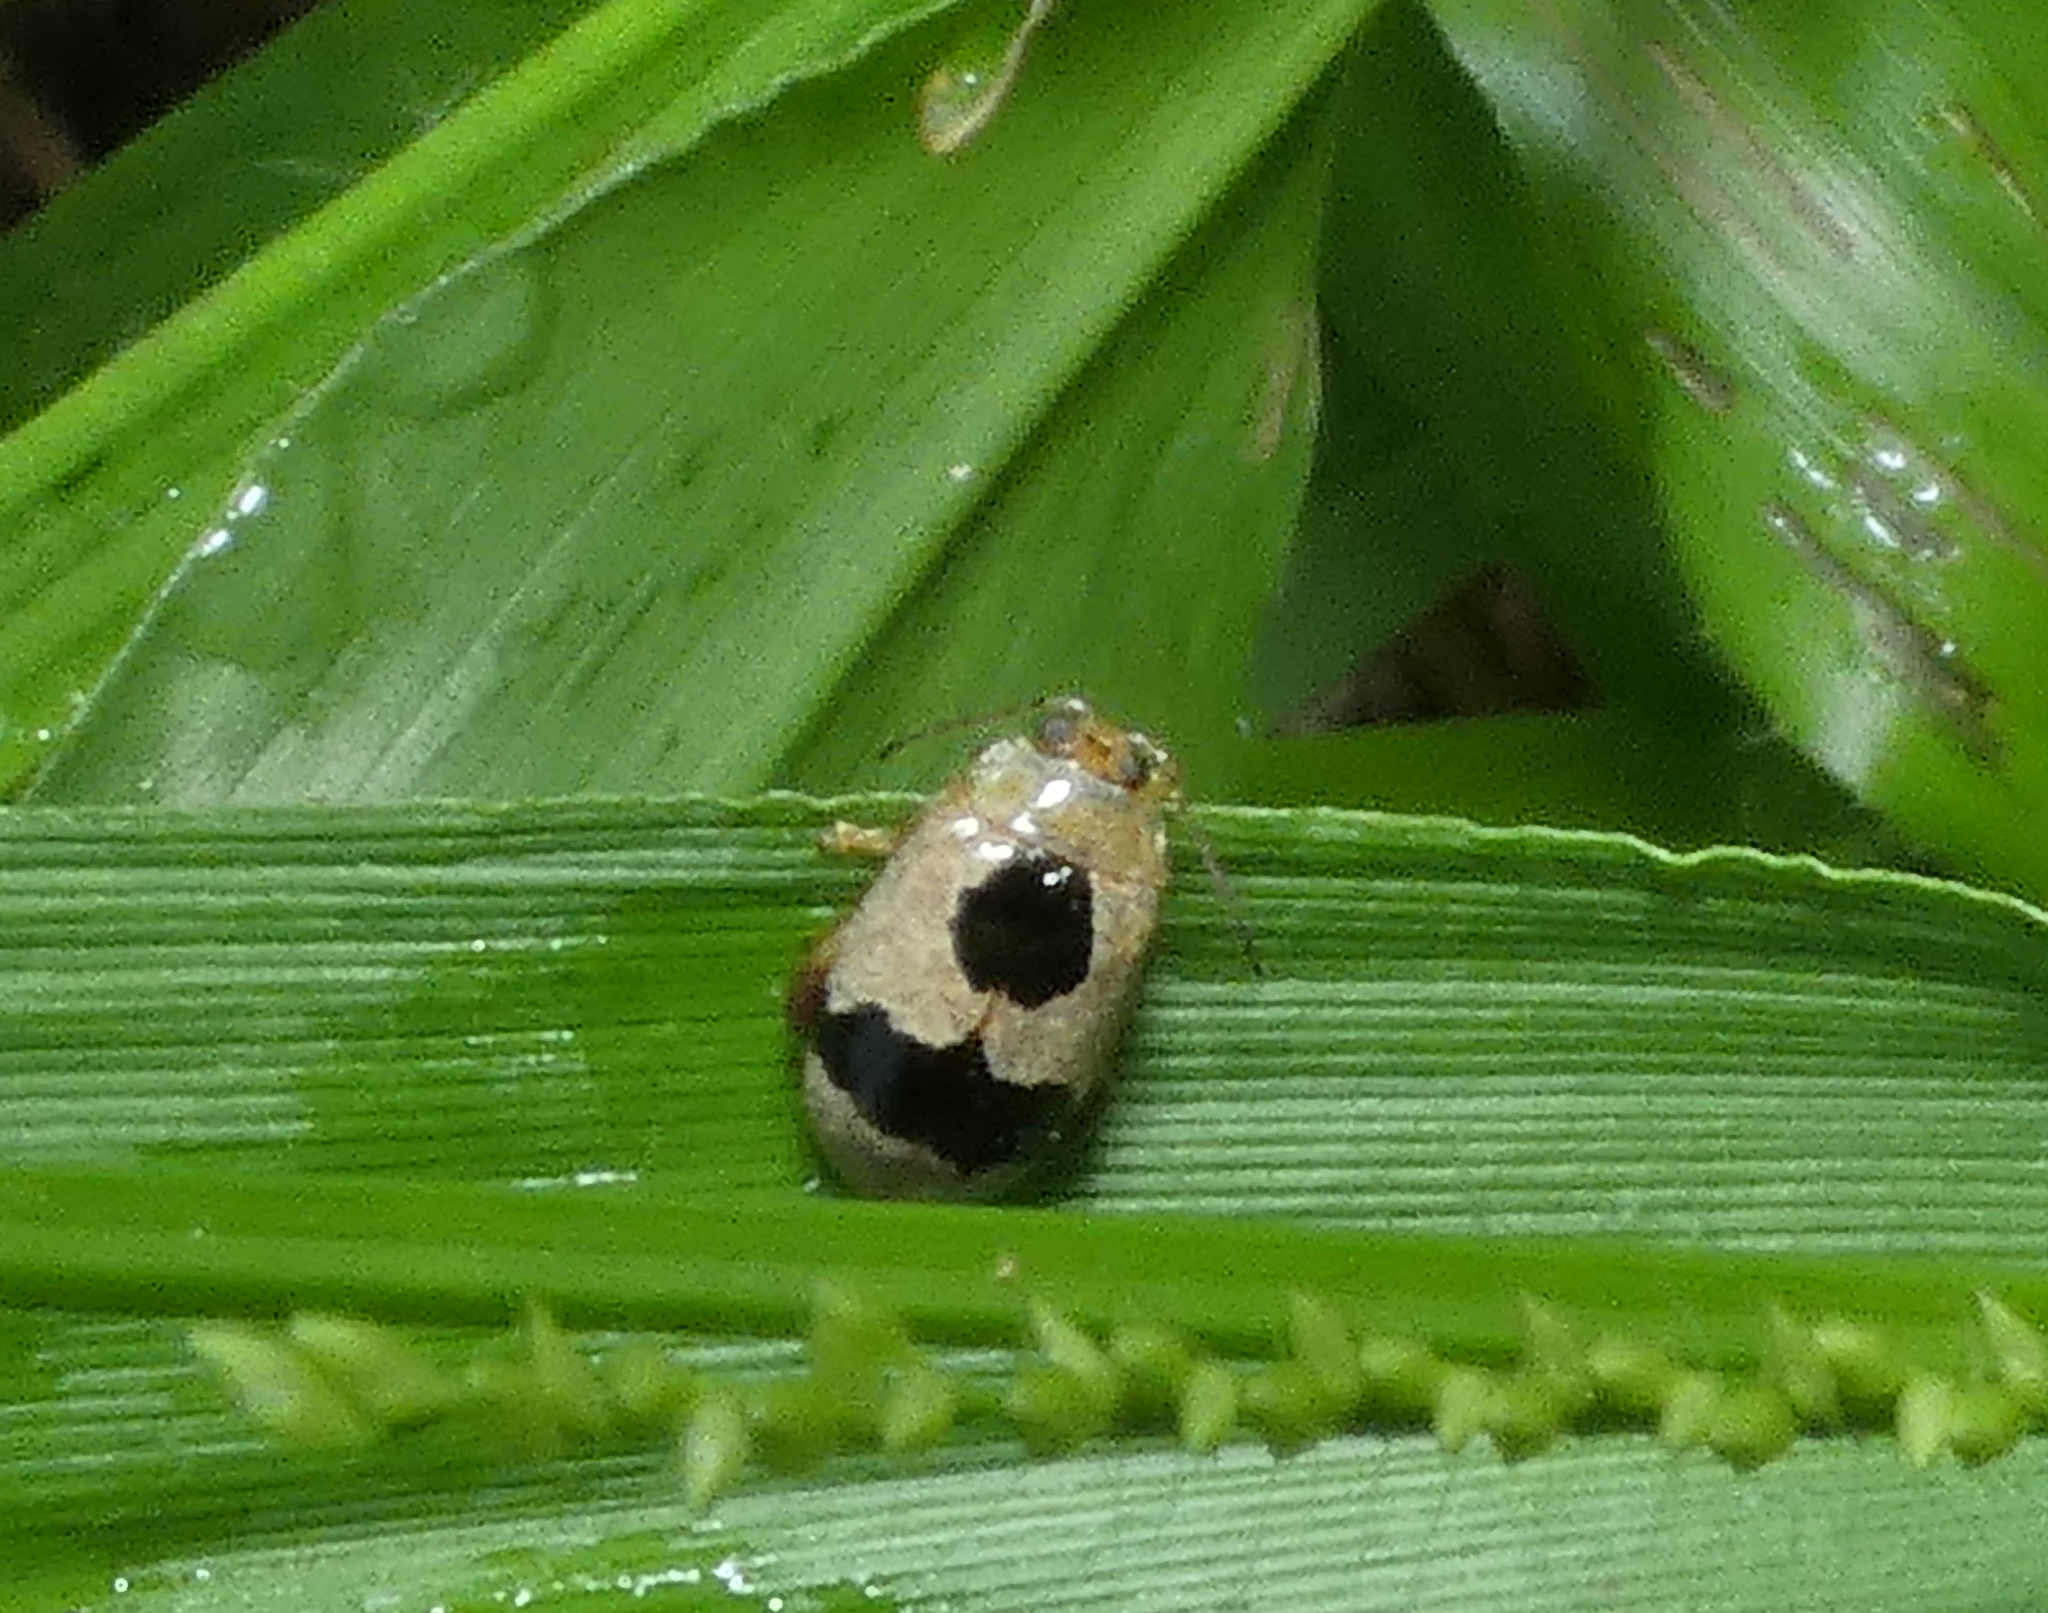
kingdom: Animalia
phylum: Arthropoda
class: Insecta
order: Coleoptera
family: Chrysomelidae
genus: Alagoasa
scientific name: Alagoasa
